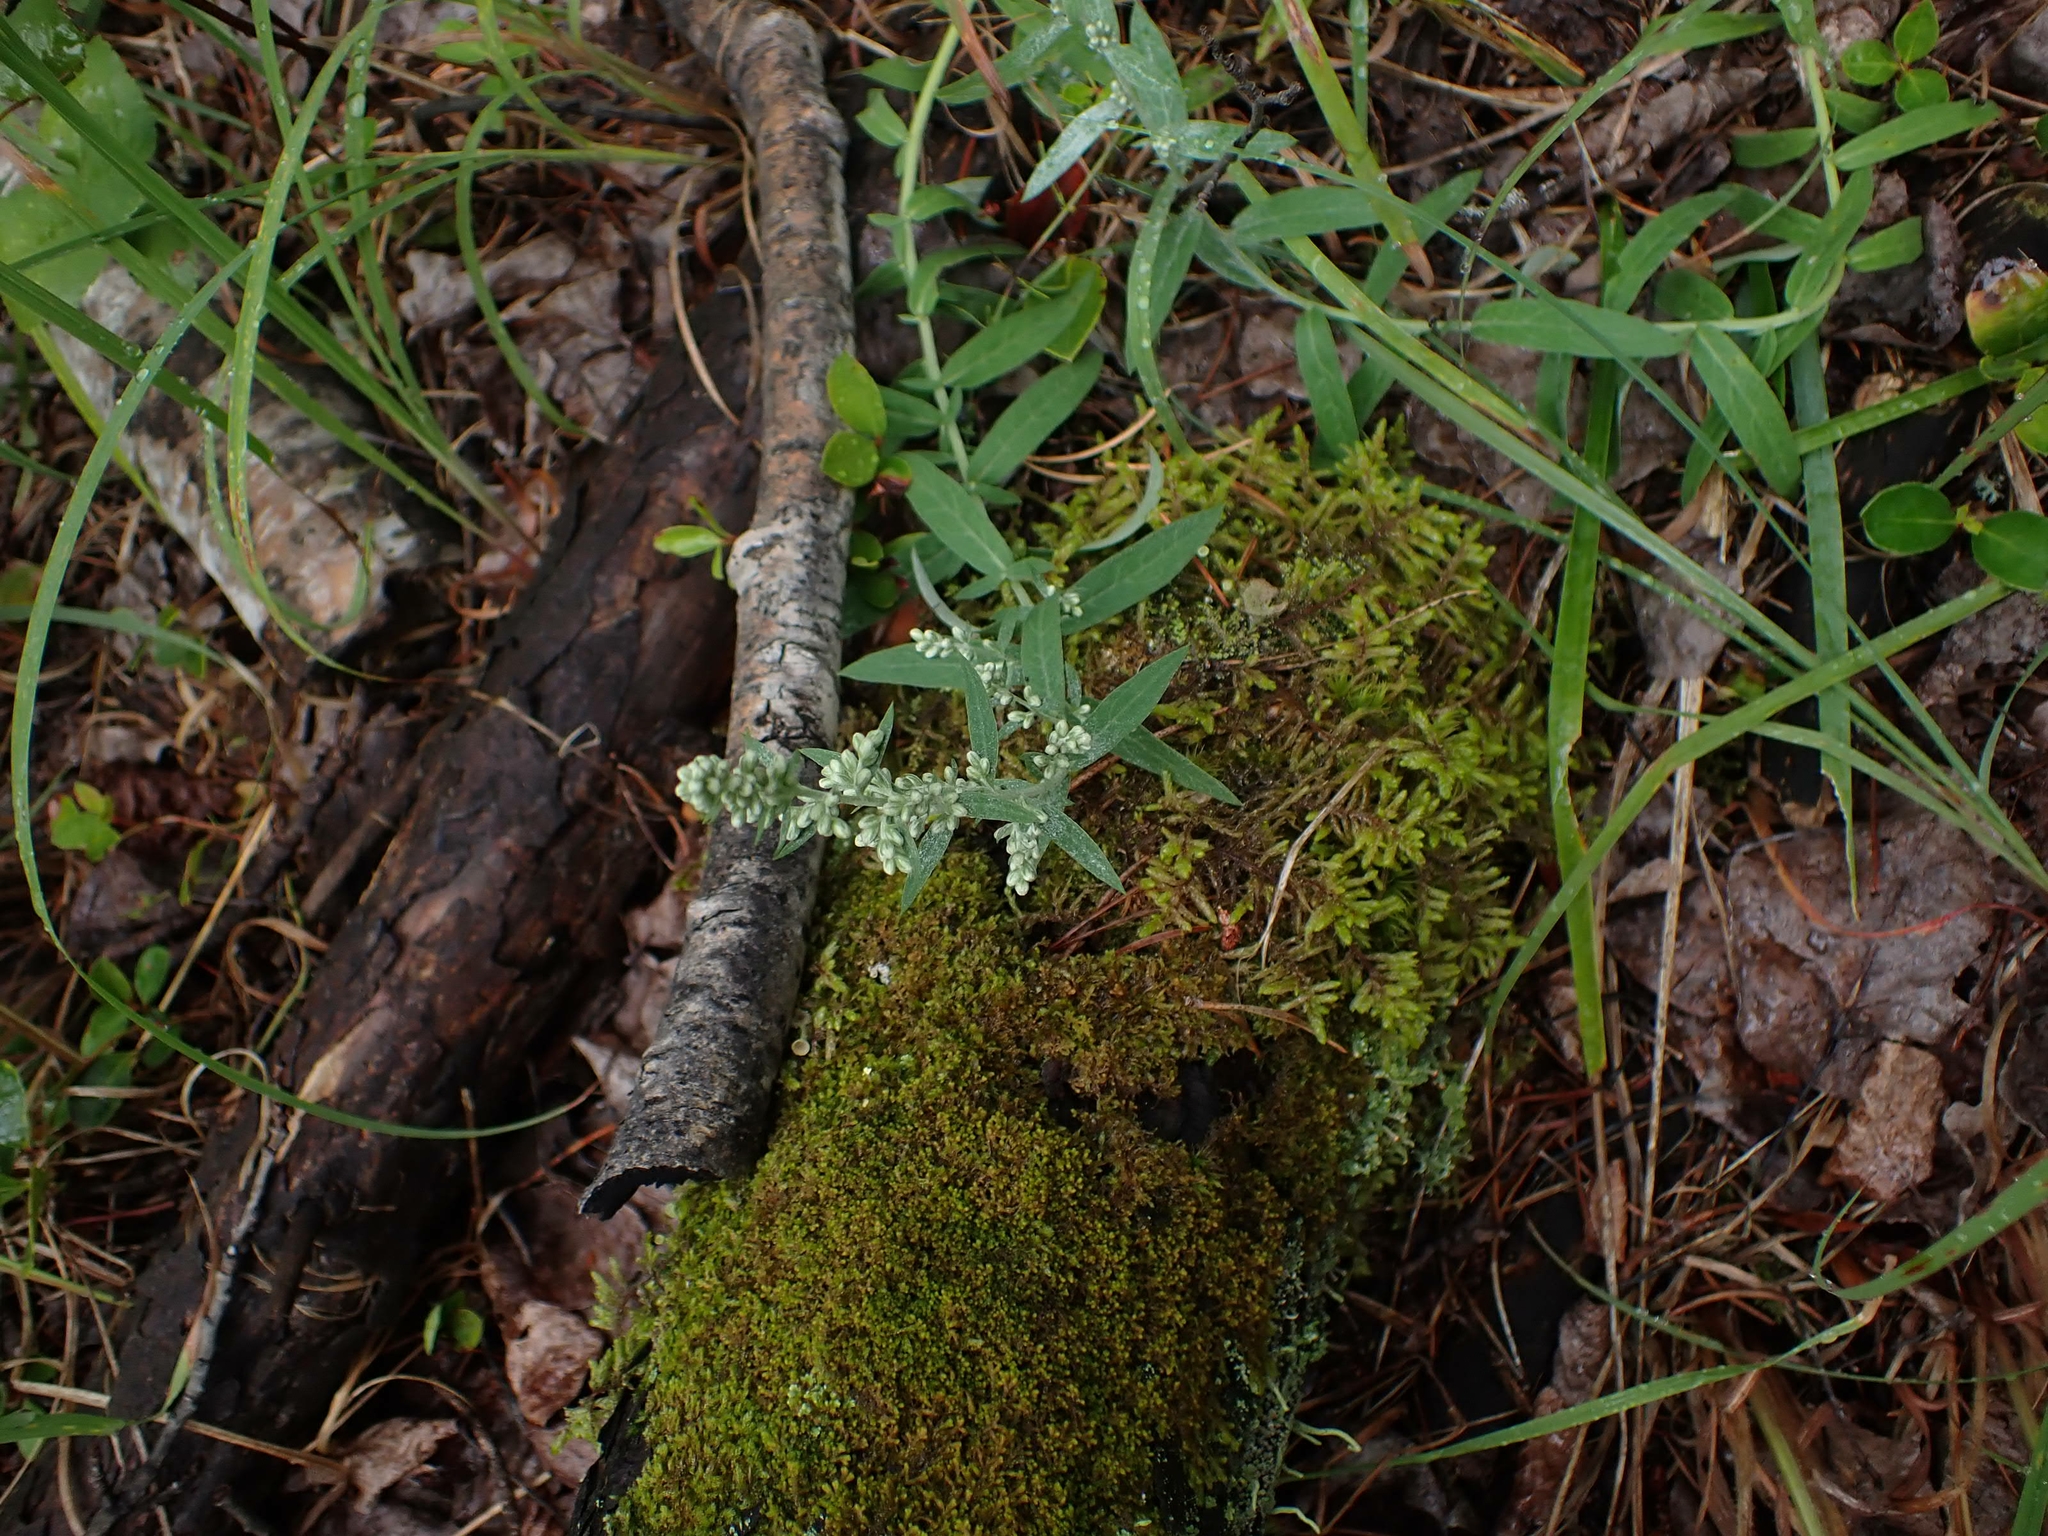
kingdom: Plantae
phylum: Tracheophyta
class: Magnoliopsida
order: Asterales
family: Asteraceae
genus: Artemisia
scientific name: Artemisia ludoviciana
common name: Western mugwort
